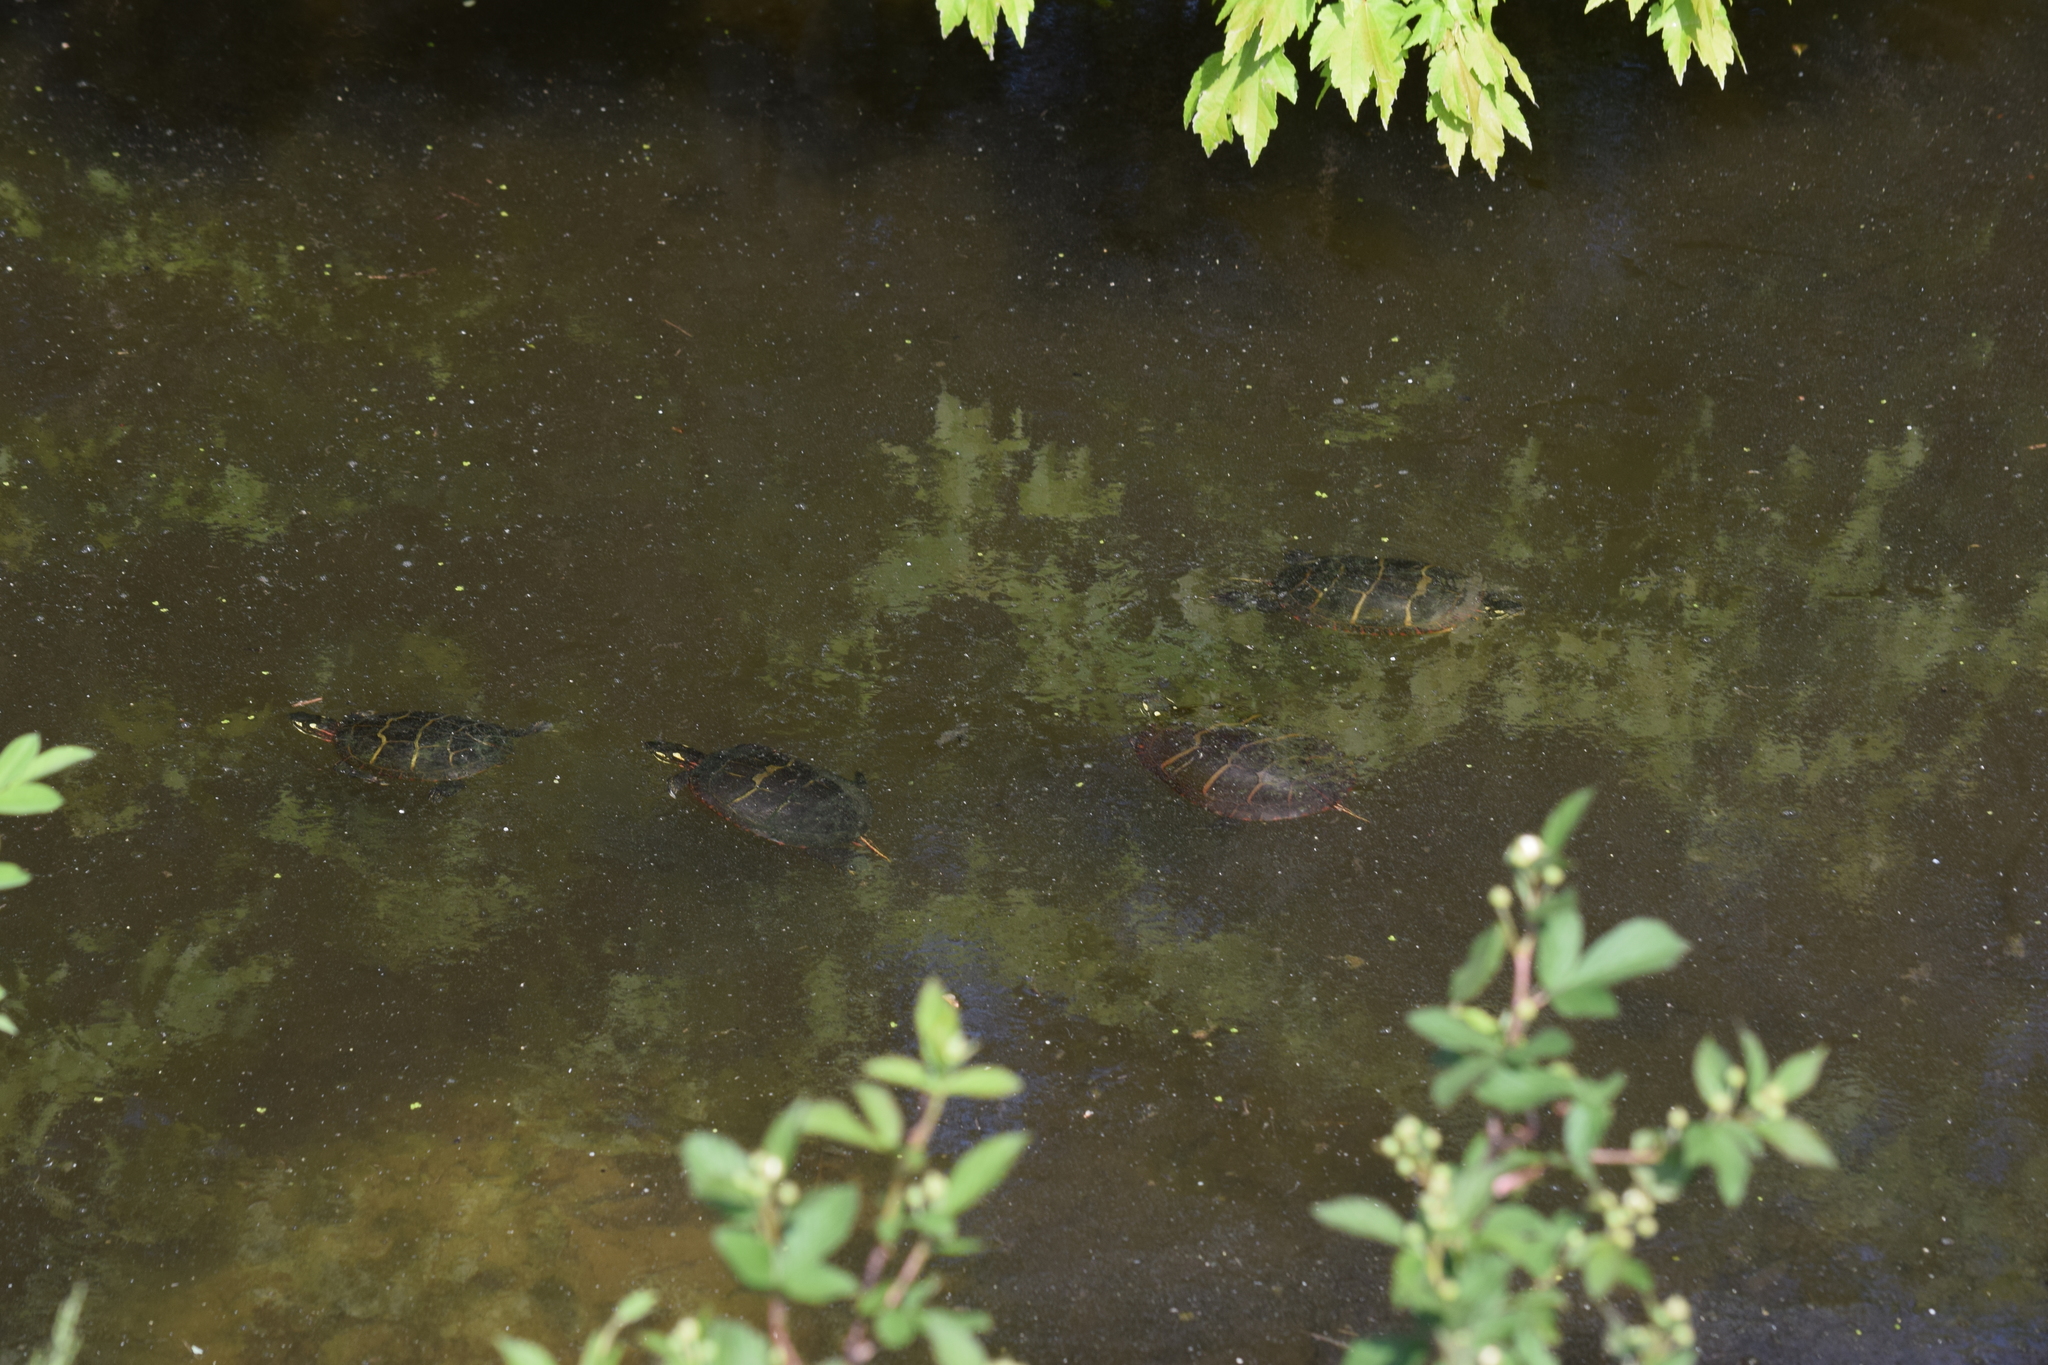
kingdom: Animalia
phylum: Chordata
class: Testudines
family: Emydidae
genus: Chrysemys
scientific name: Chrysemys picta
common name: Painted turtle
